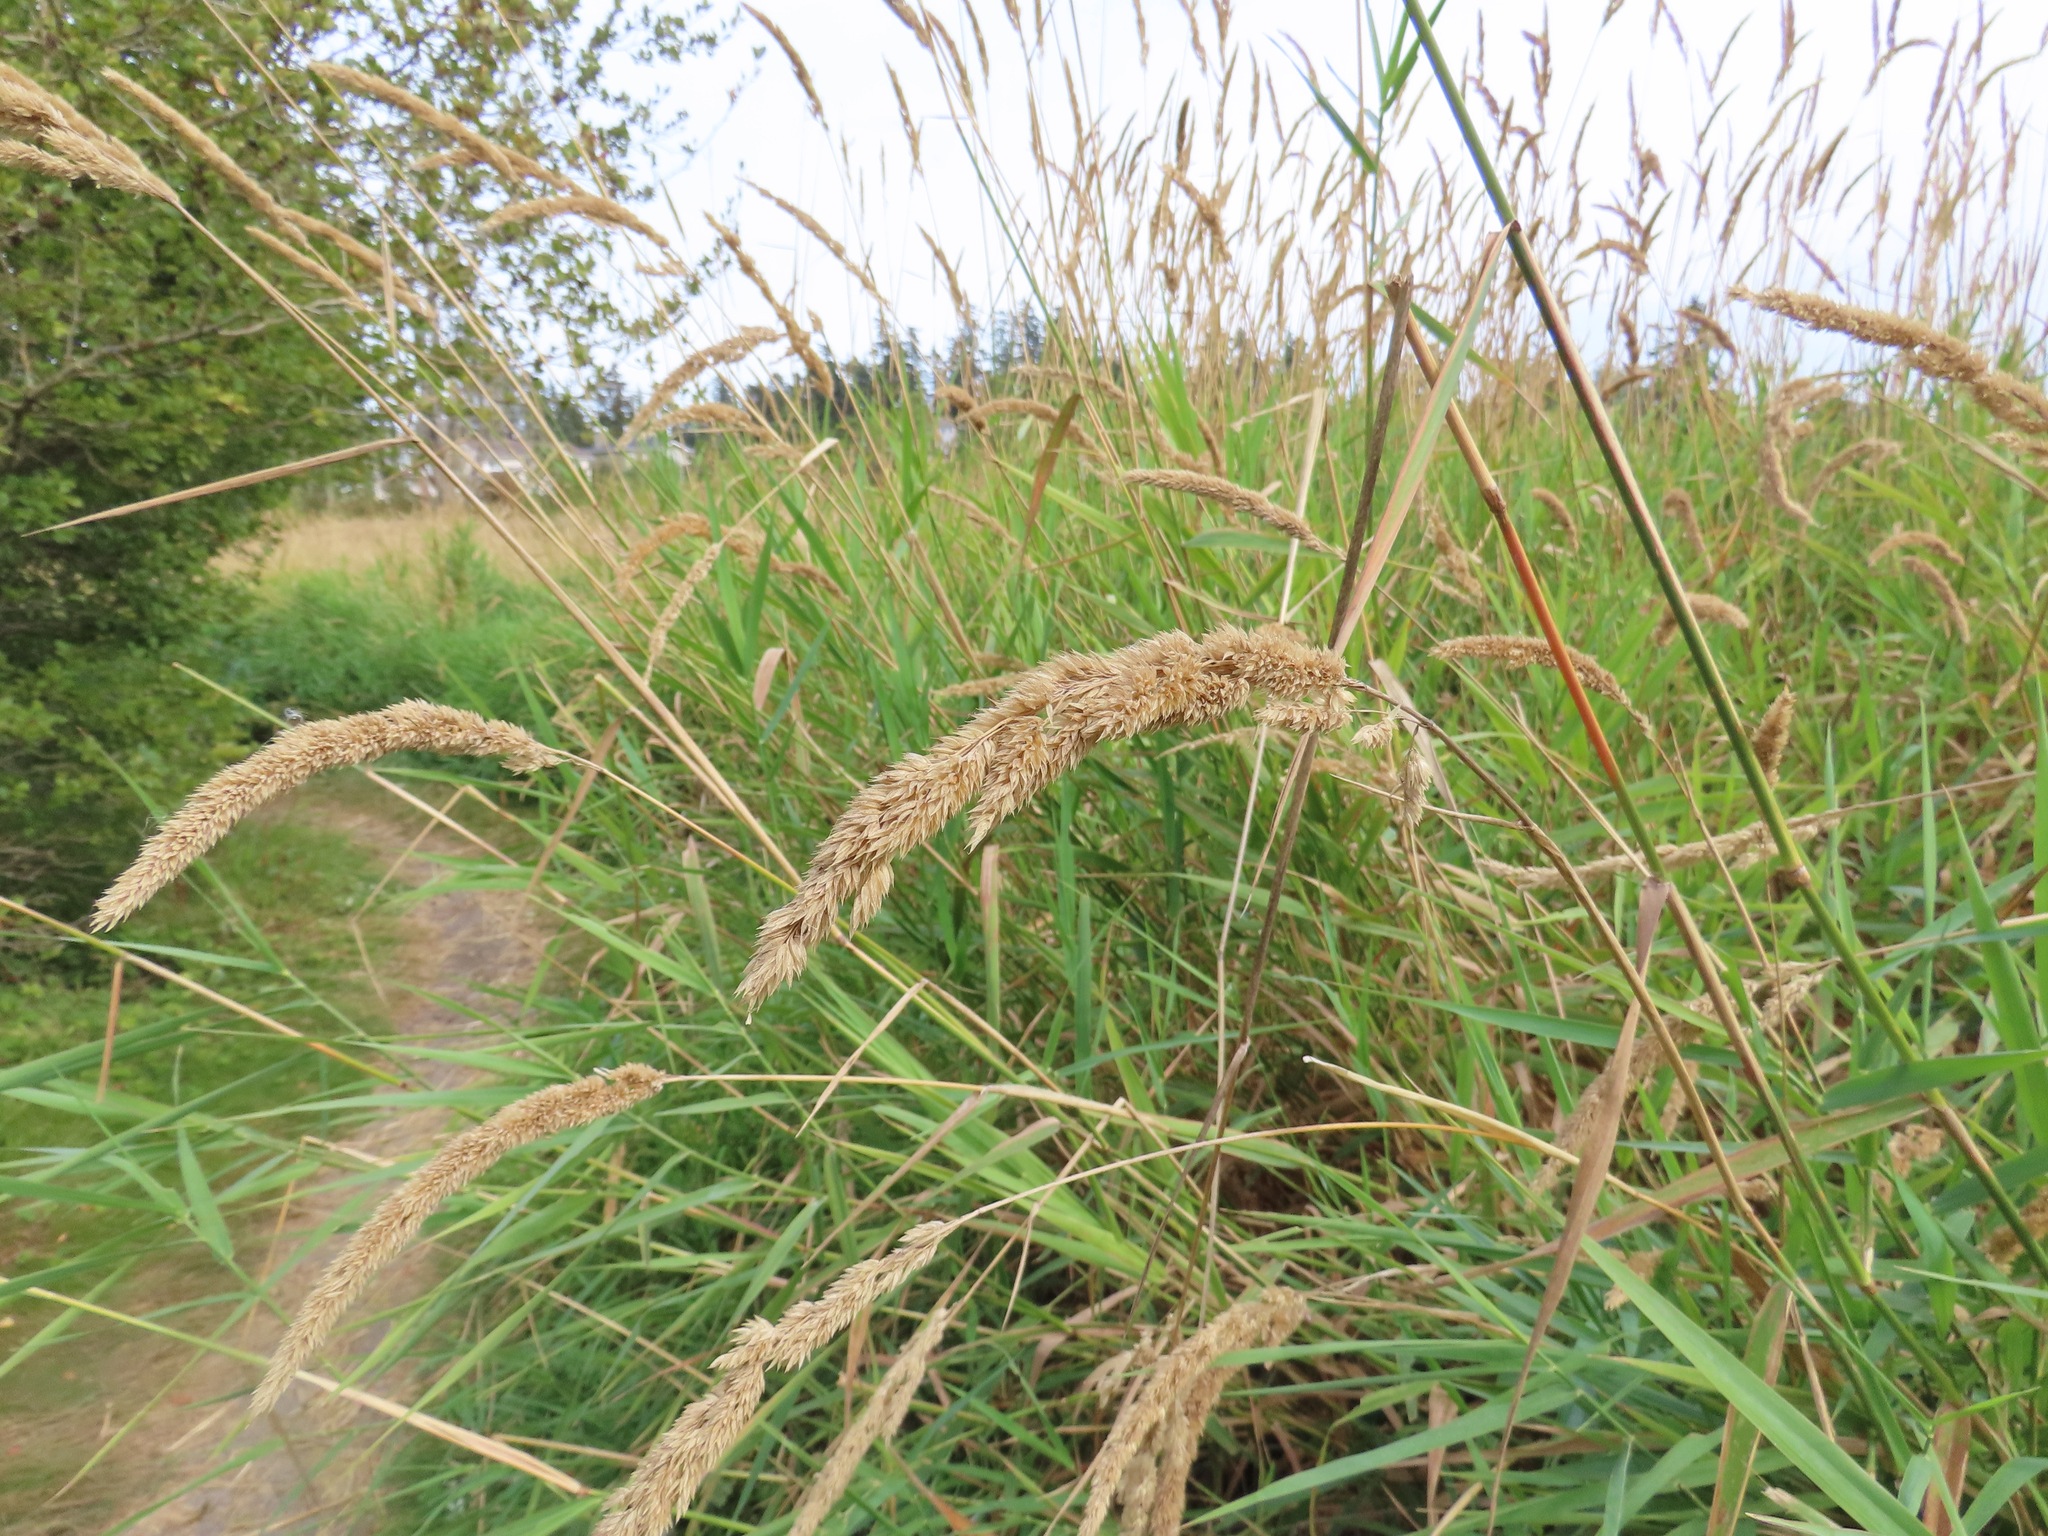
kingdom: Plantae
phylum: Tracheophyta
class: Liliopsida
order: Poales
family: Poaceae
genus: Phalaris
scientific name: Phalaris arundinacea
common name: Reed canary-grass
